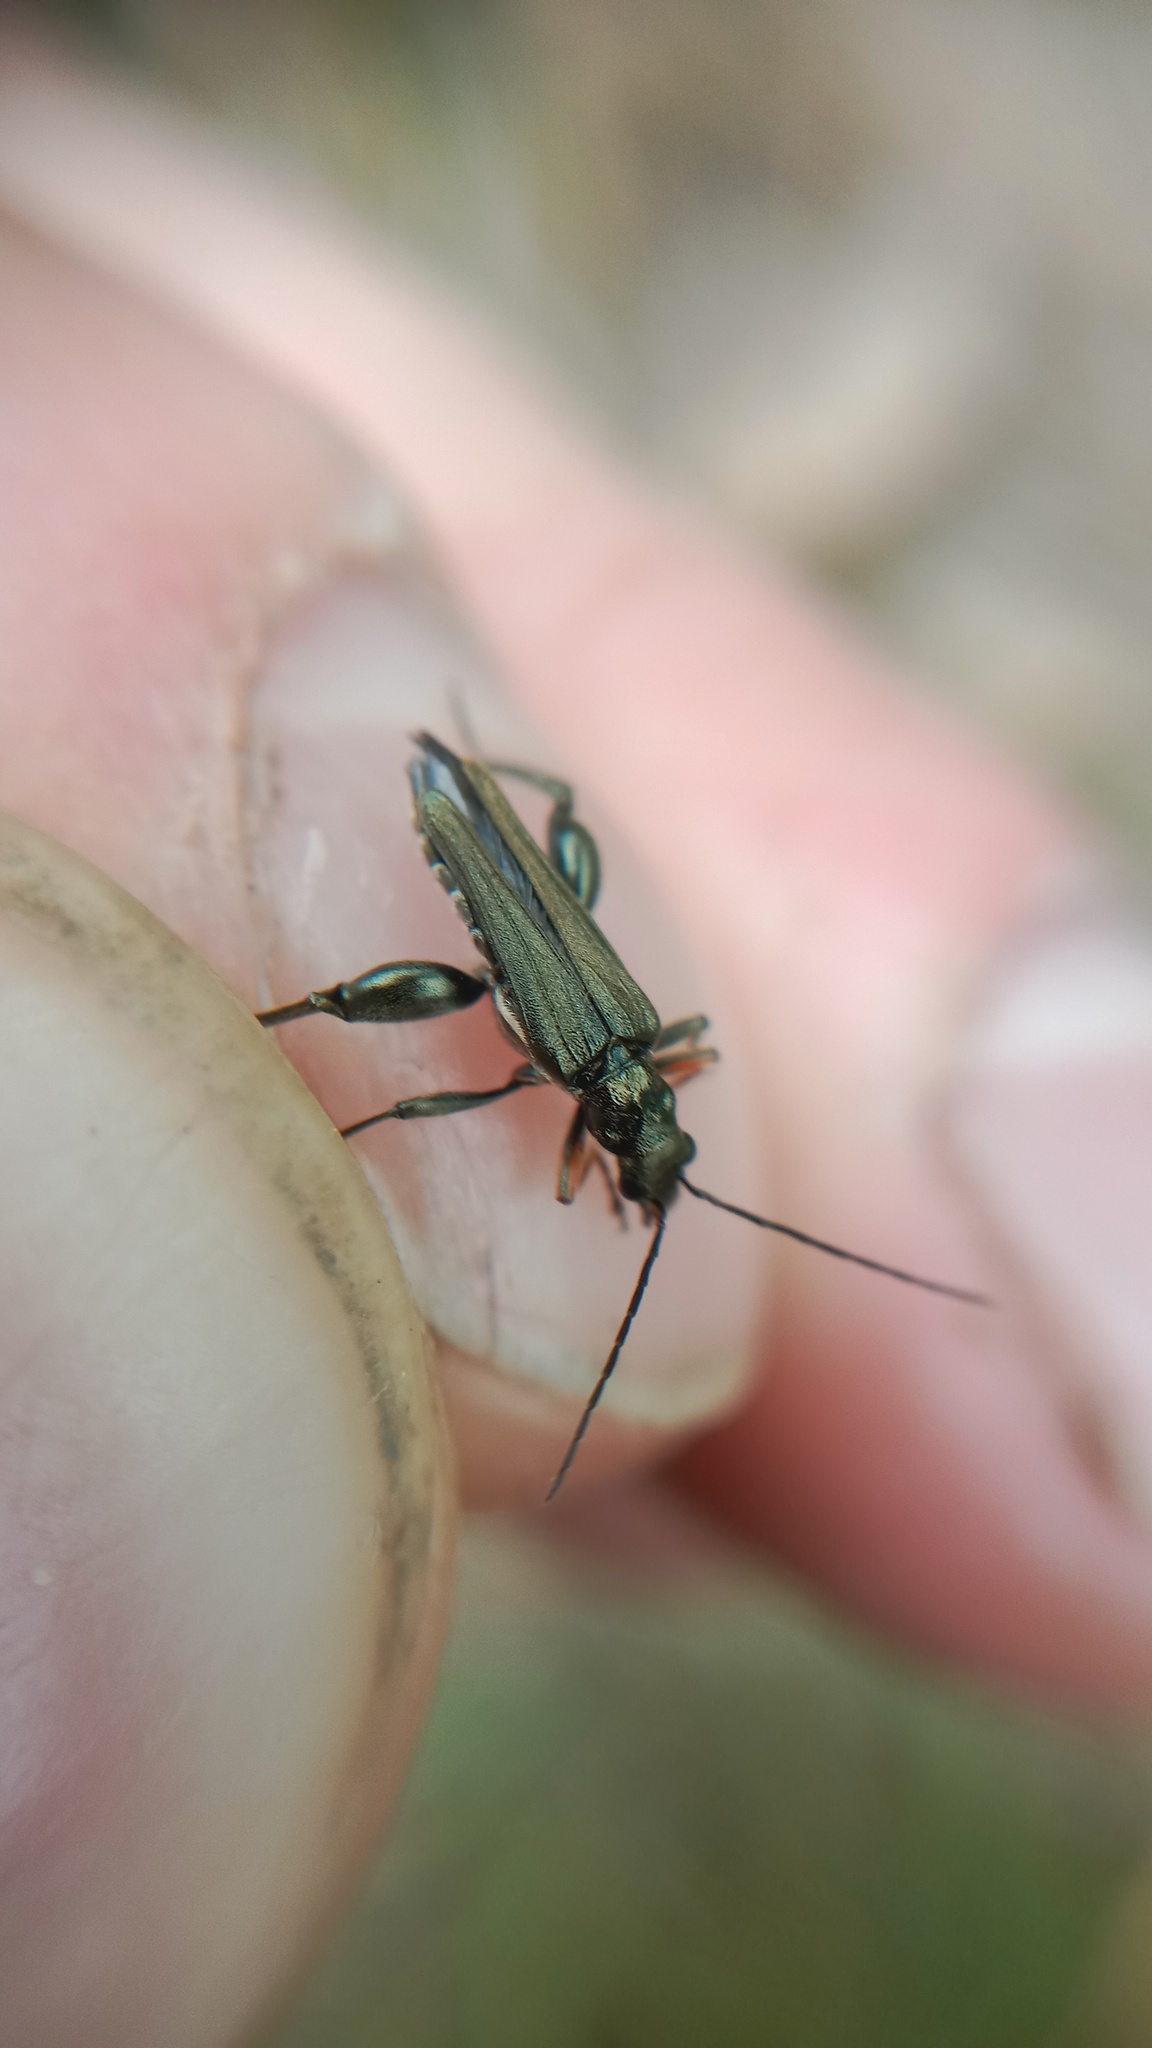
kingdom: Animalia
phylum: Arthropoda
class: Insecta
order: Coleoptera
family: Oedemeridae
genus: Oedemera
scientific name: Oedemera flavipes
